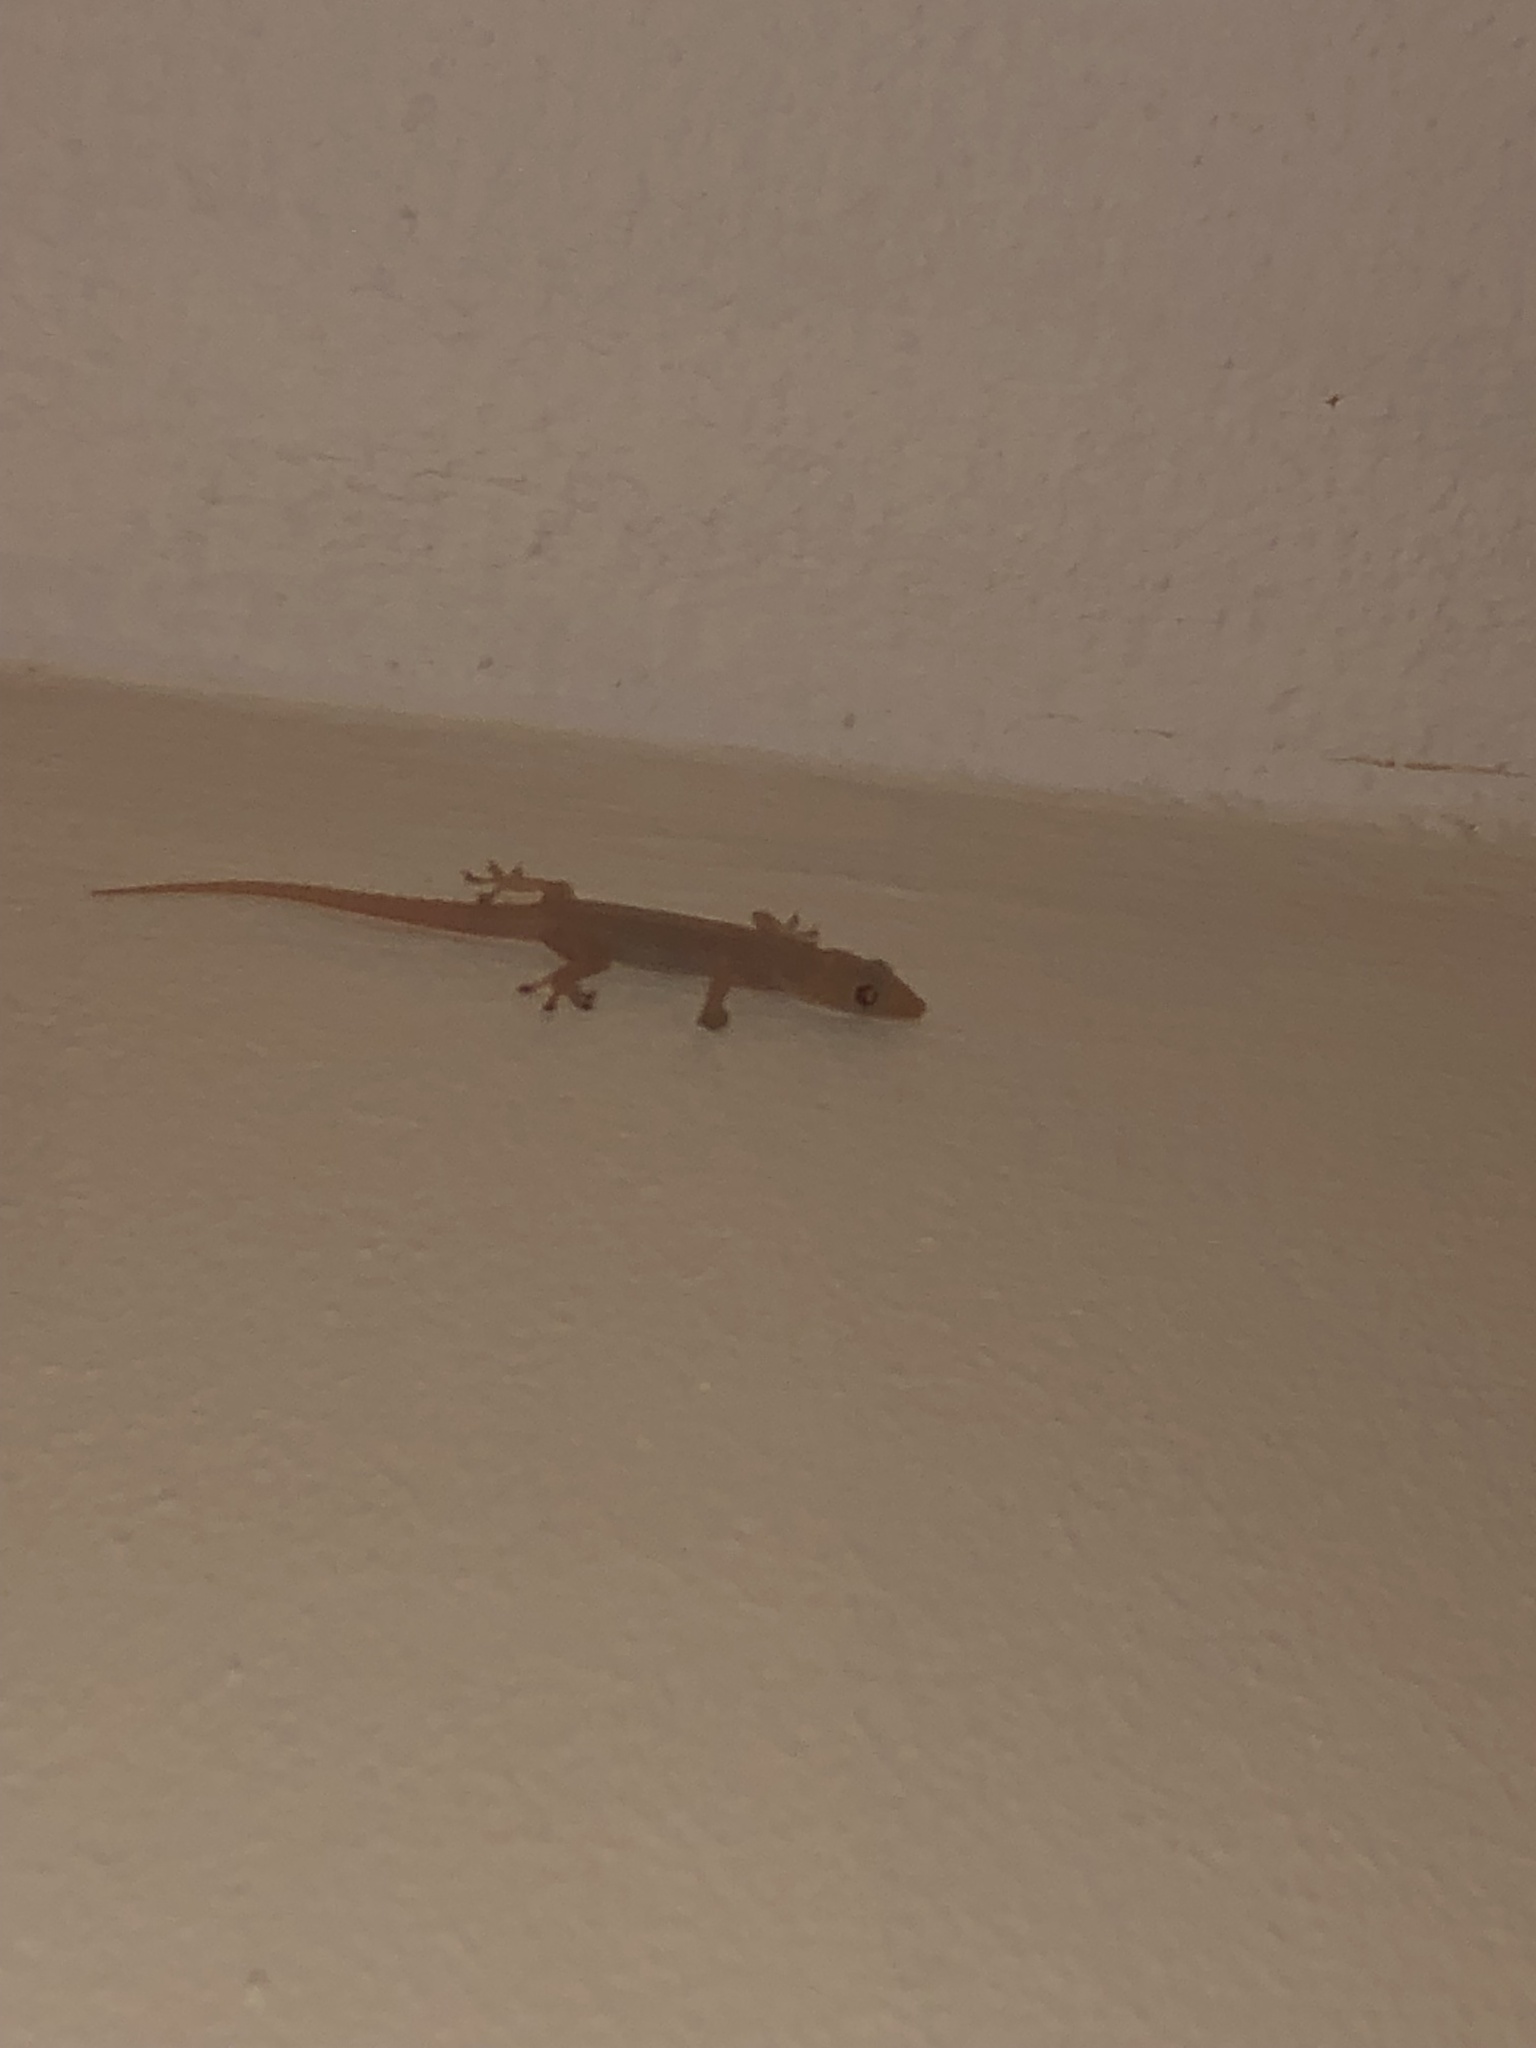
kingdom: Animalia
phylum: Chordata
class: Squamata
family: Gekkonidae
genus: Hemidactylus
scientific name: Hemidactylus frenatus
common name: Common house gecko
